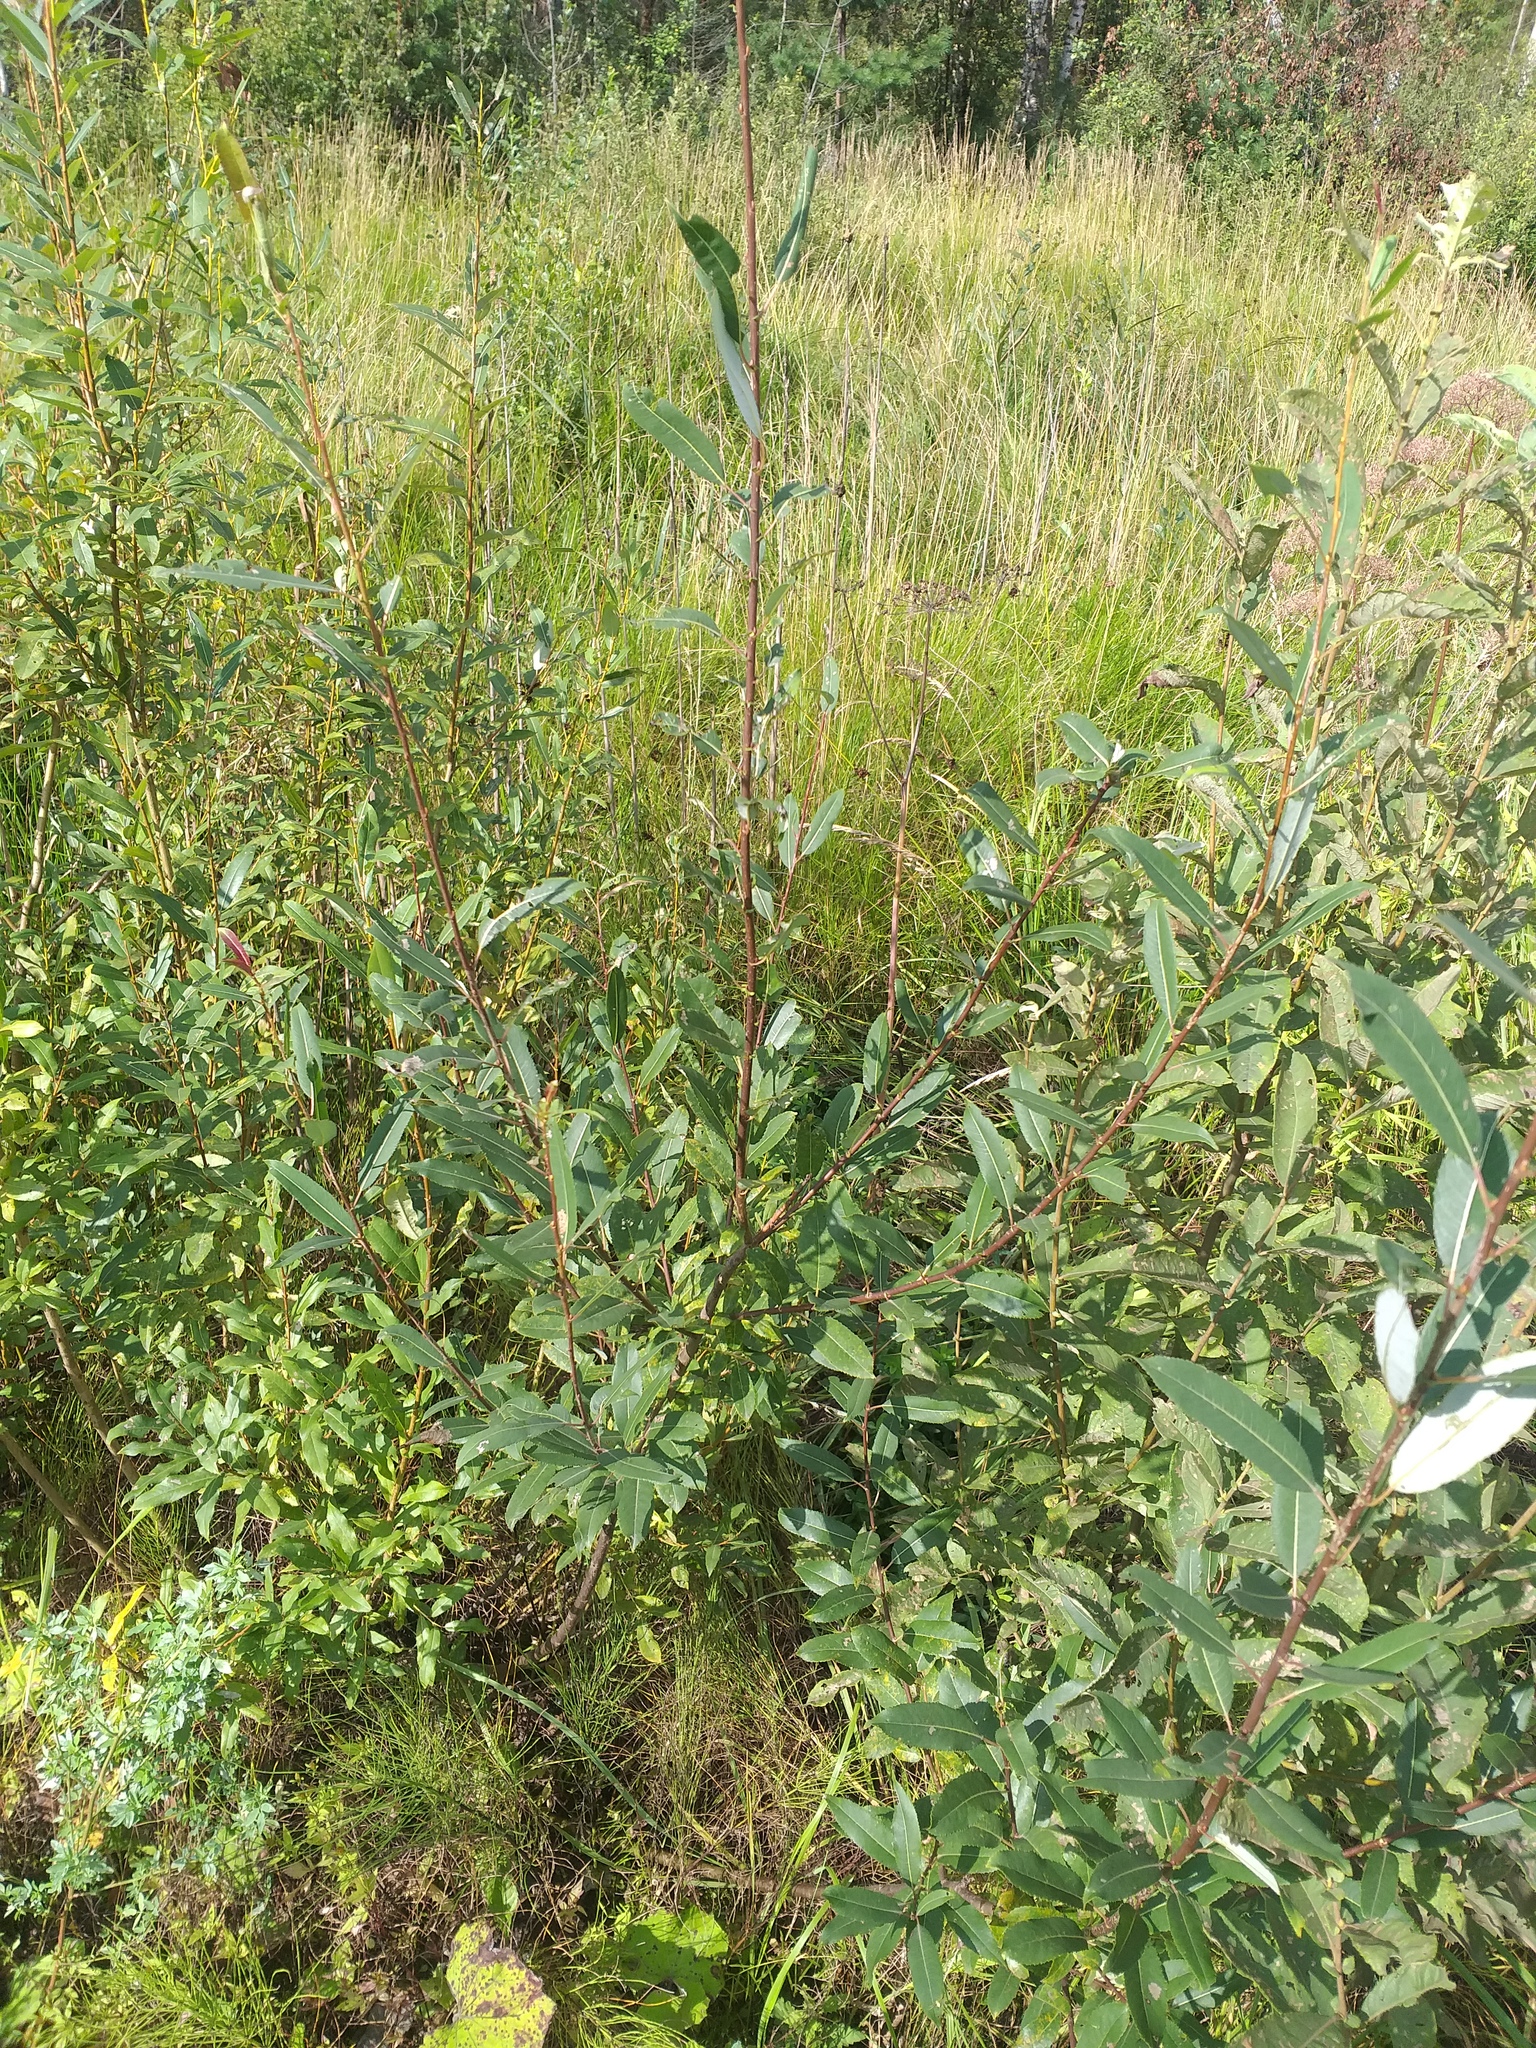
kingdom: Plantae
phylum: Tracheophyta
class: Magnoliopsida
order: Malpighiales
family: Salicaceae
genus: Salix
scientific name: Salix triandra
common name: Almond willow
